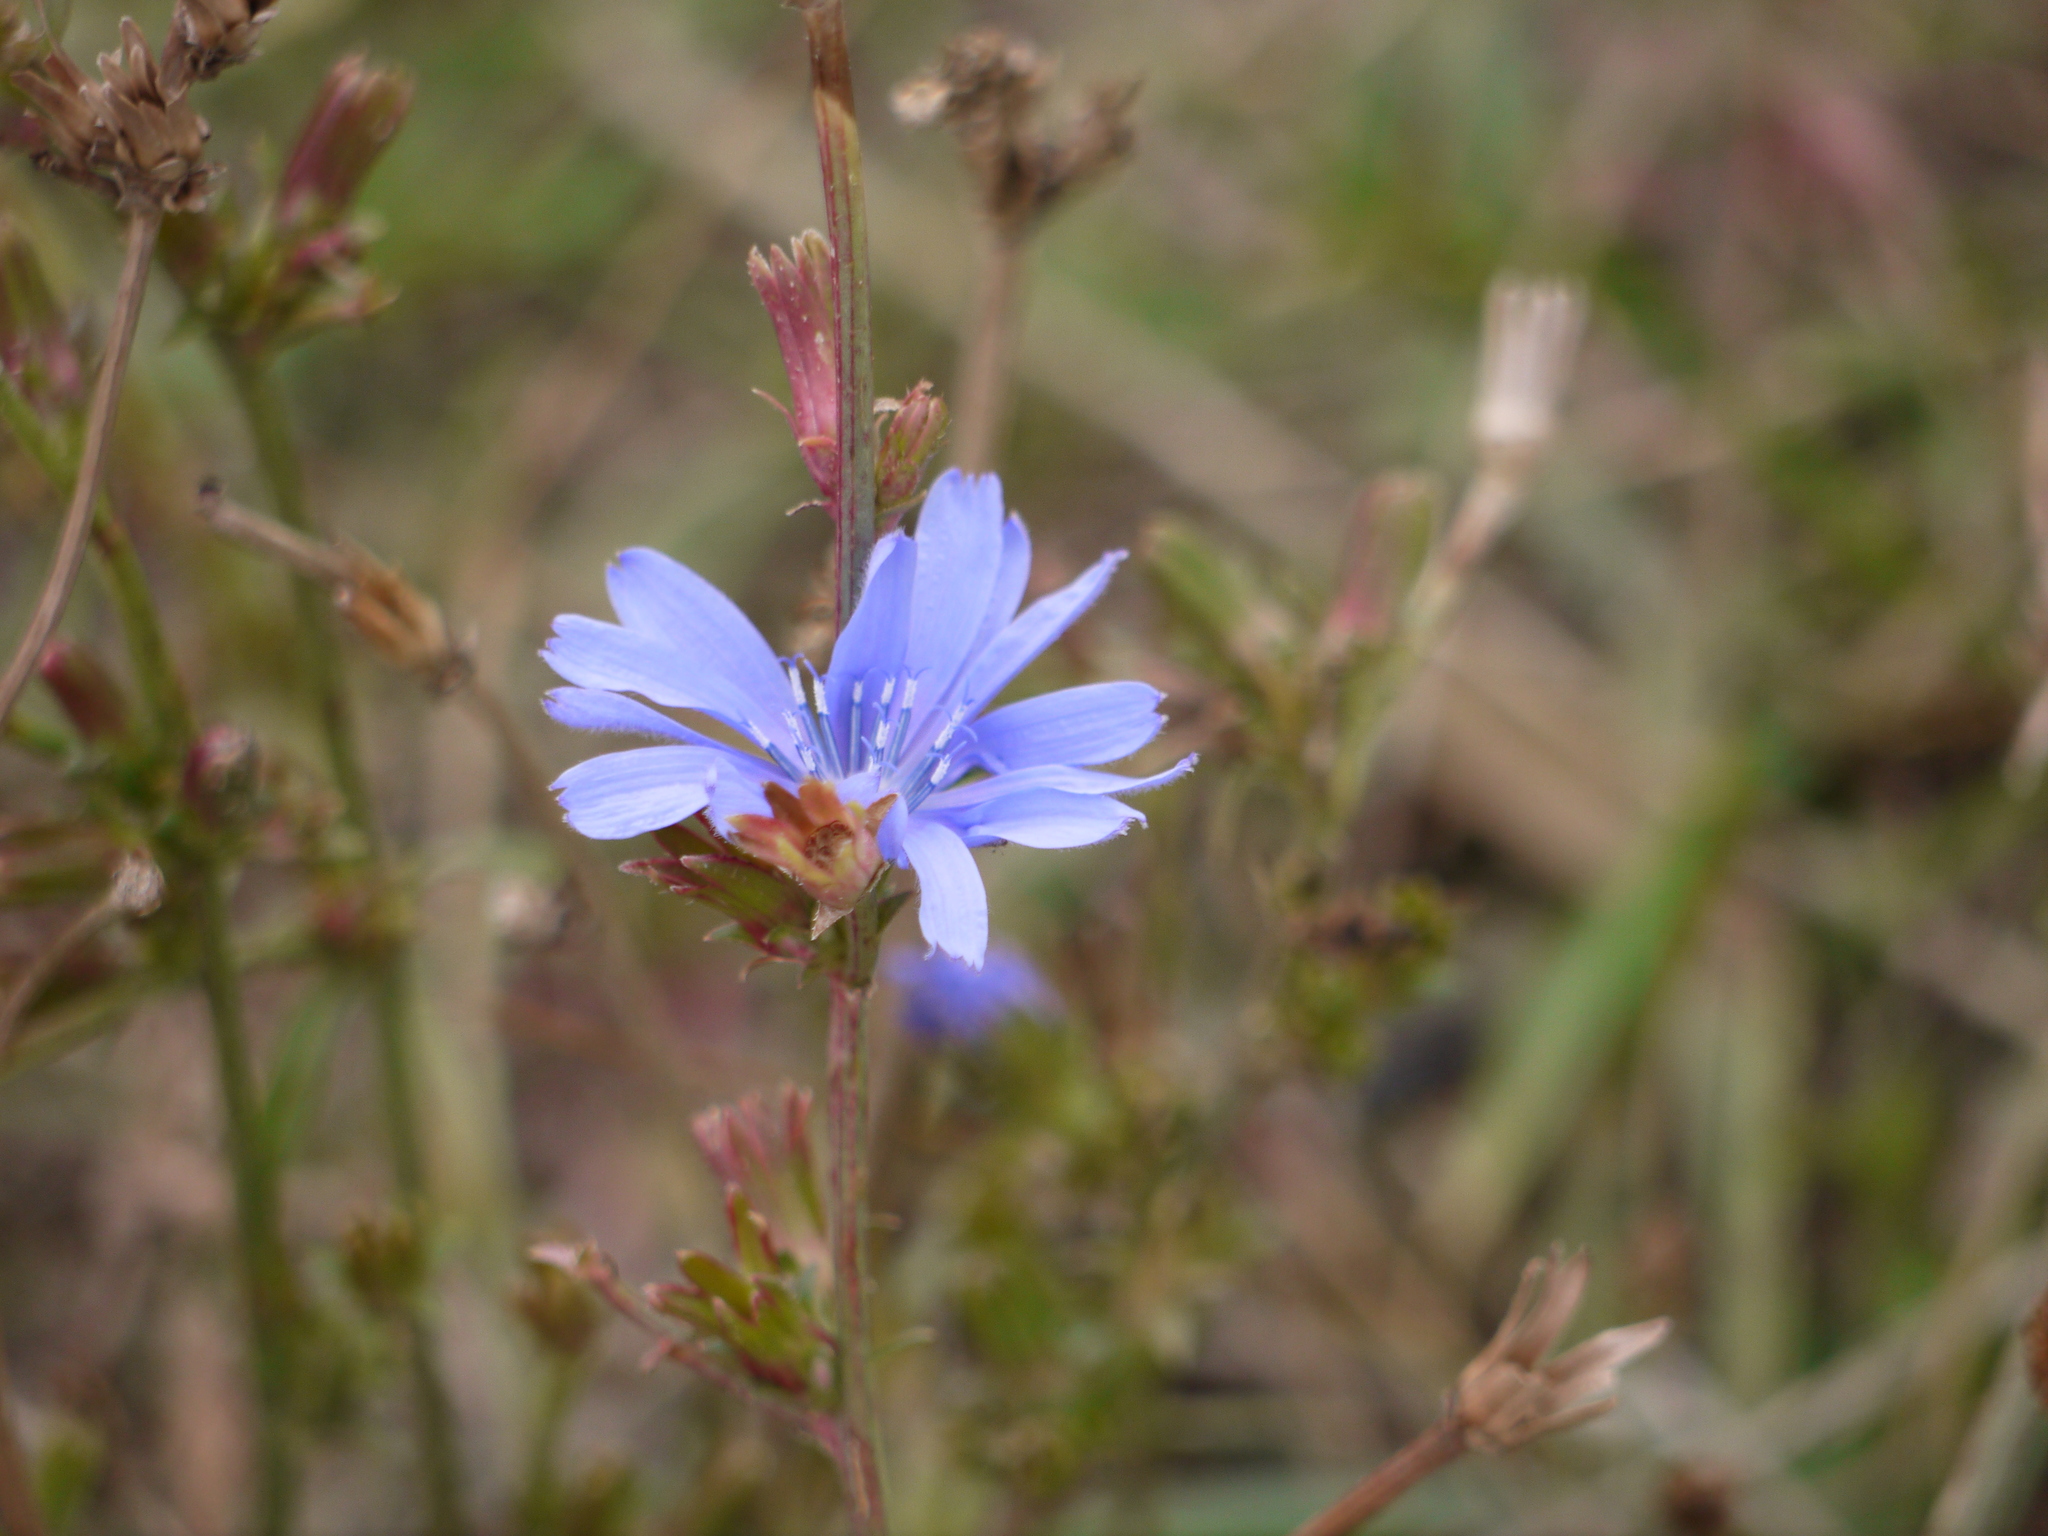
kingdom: Plantae
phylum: Tracheophyta
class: Magnoliopsida
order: Asterales
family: Asteraceae
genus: Cichorium
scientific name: Cichorium intybus
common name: Chicory
